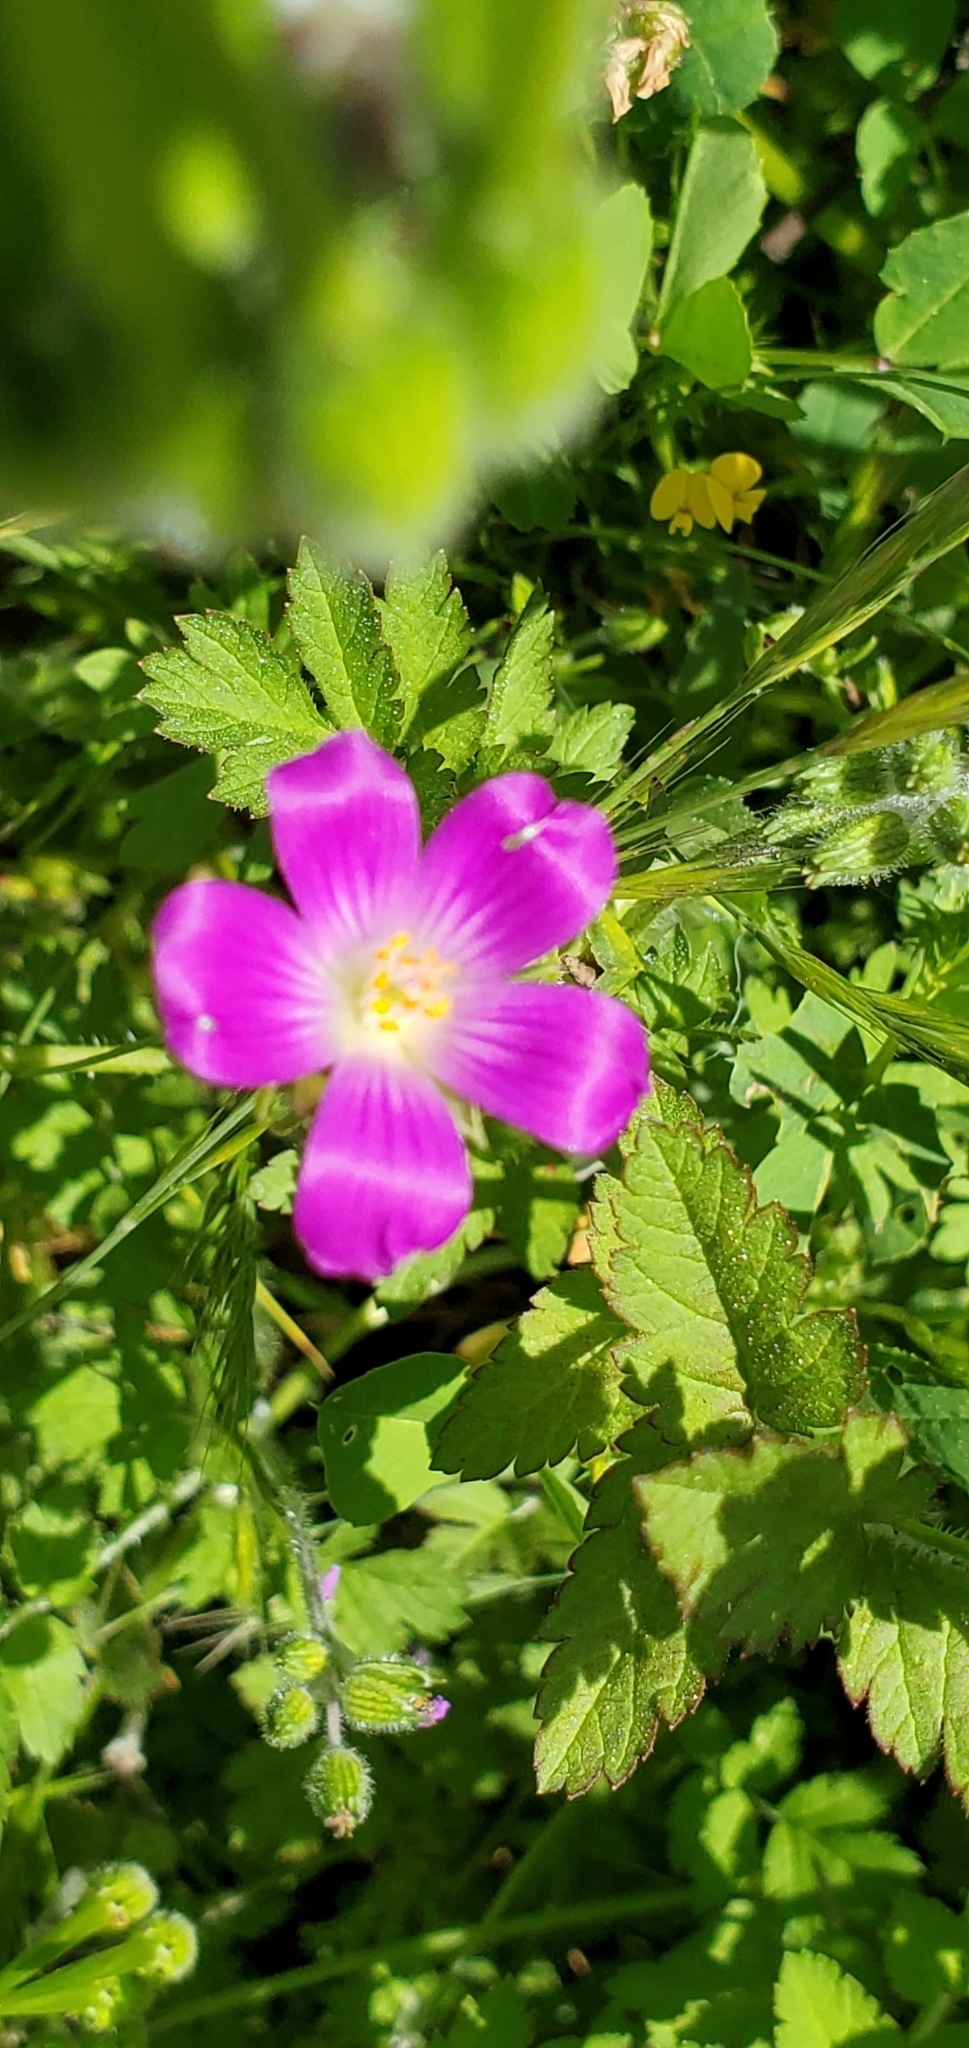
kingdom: Plantae
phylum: Tracheophyta
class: Magnoliopsida
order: Caryophyllales
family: Montiaceae
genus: Calandrinia
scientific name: Calandrinia menziesii
